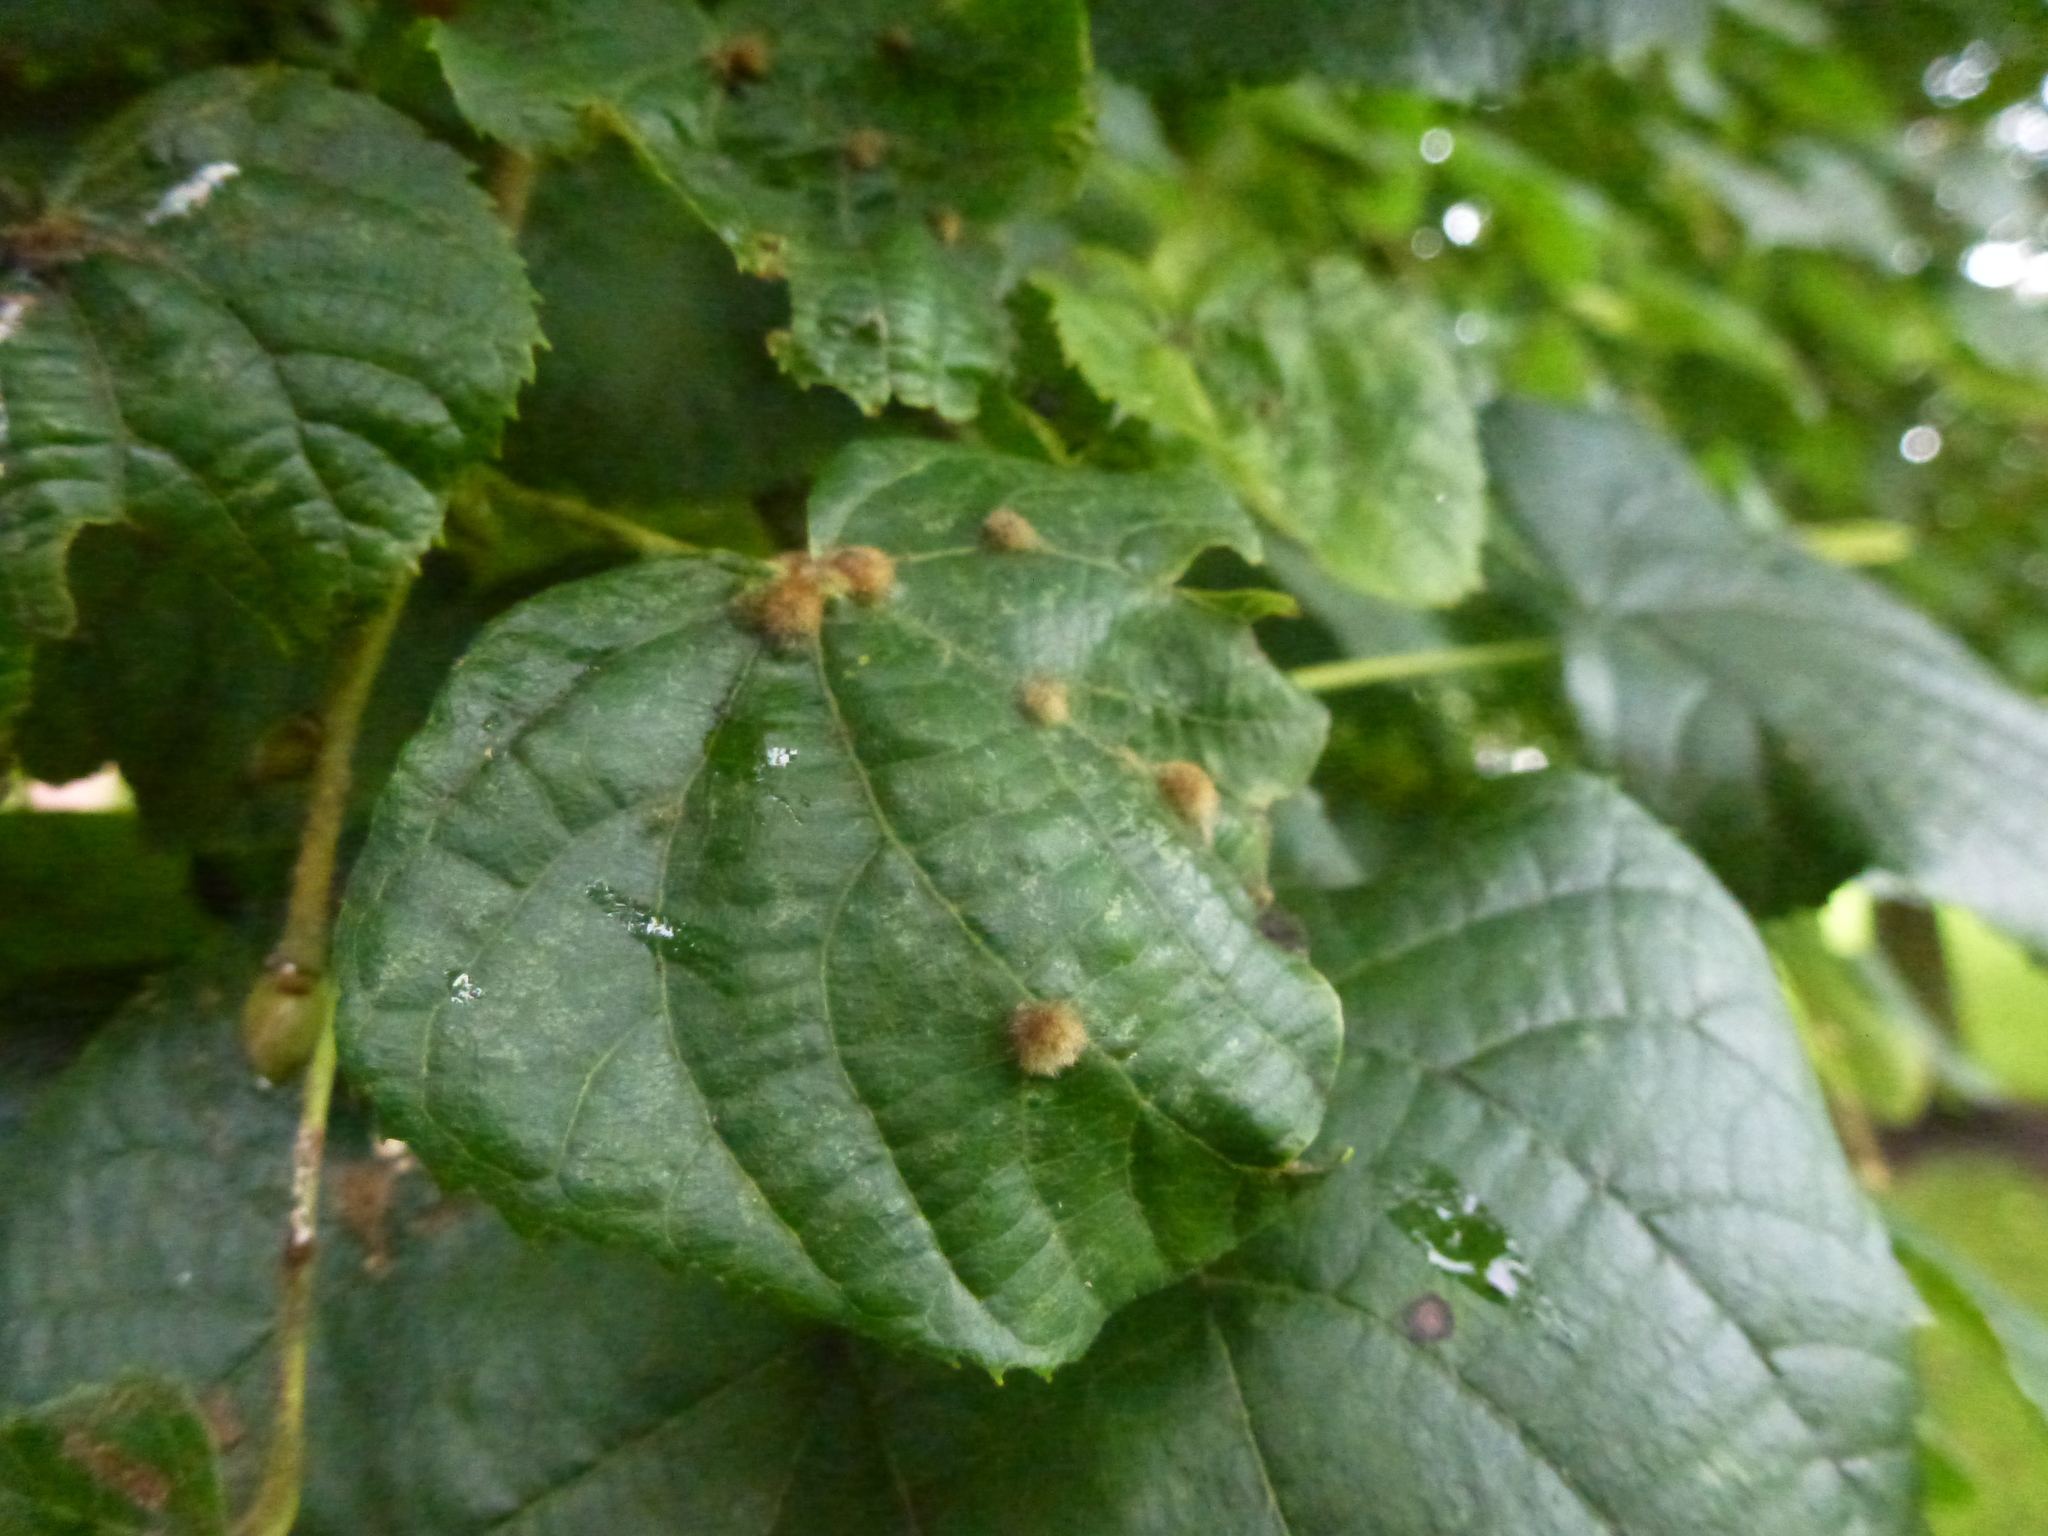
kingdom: Animalia
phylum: Arthropoda
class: Arachnida
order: Trombidiformes
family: Eriophyidae
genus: Eriophyes
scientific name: Eriophyes exilis
